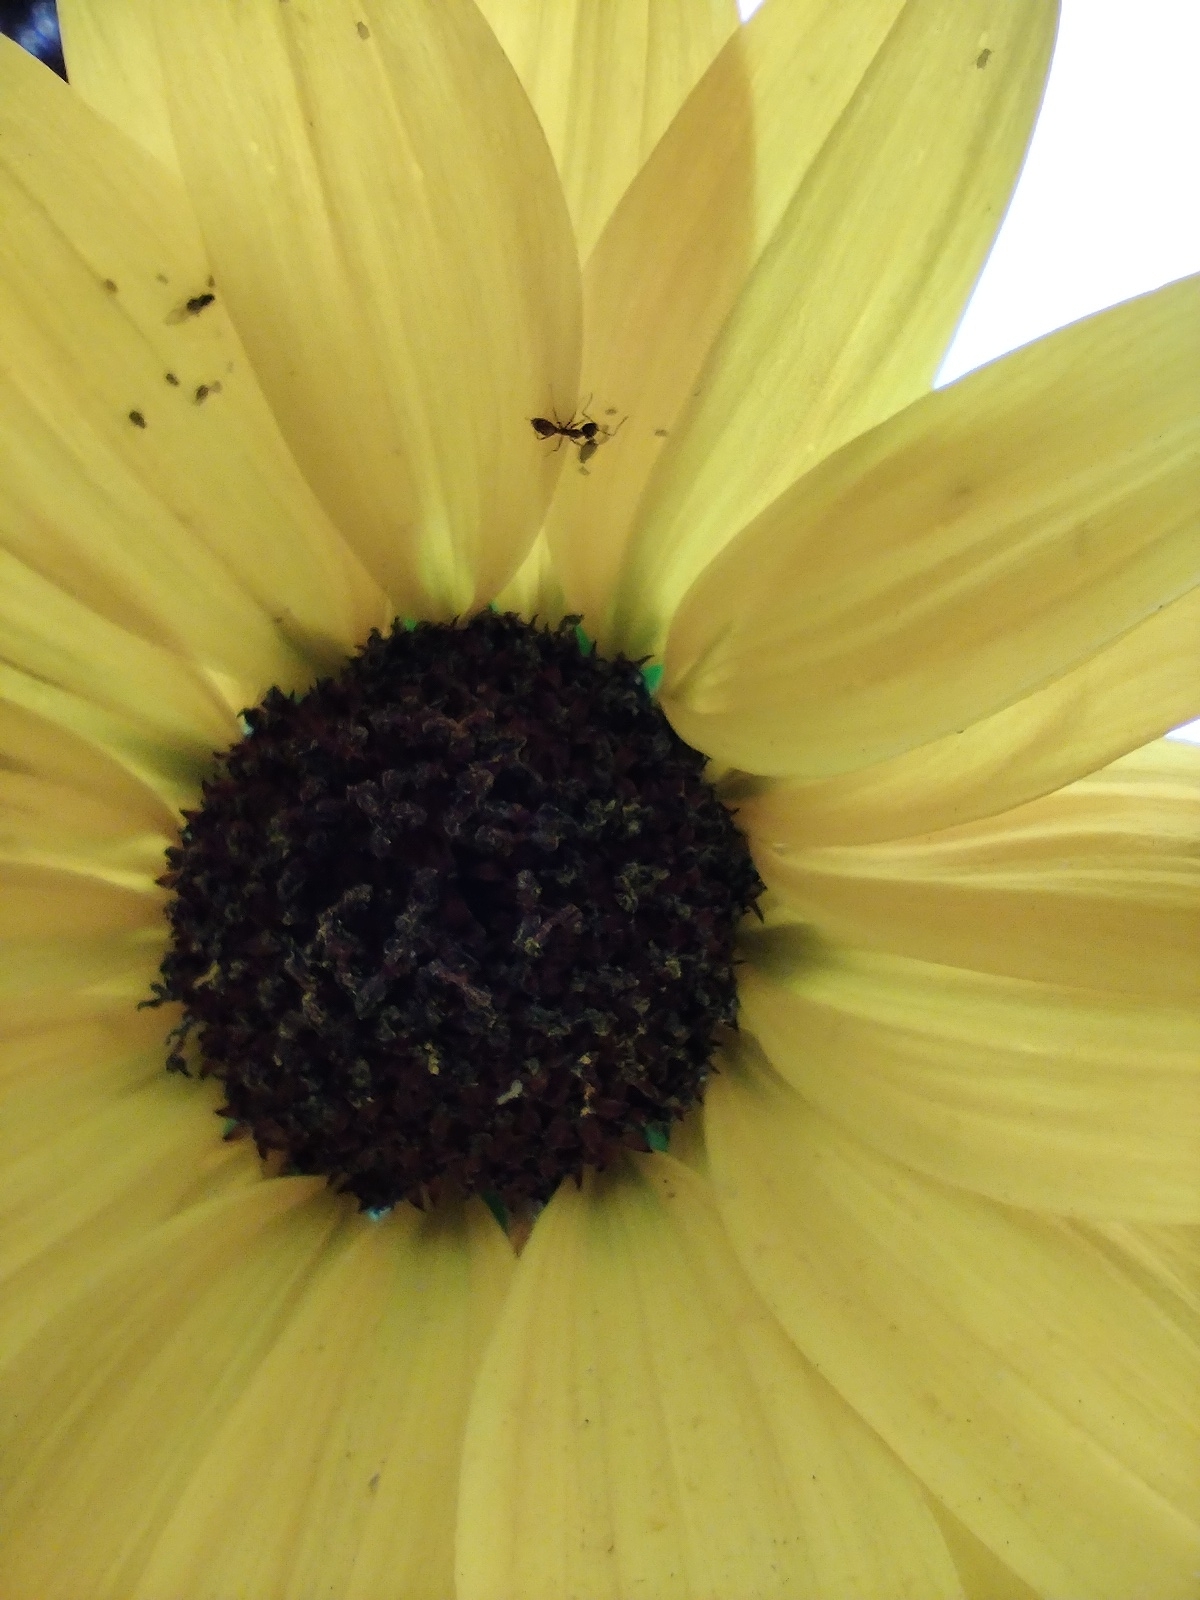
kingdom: Animalia
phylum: Arthropoda
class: Insecta
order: Hymenoptera
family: Formicidae
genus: Linepithema
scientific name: Linepithema humile
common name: Argentine ant
